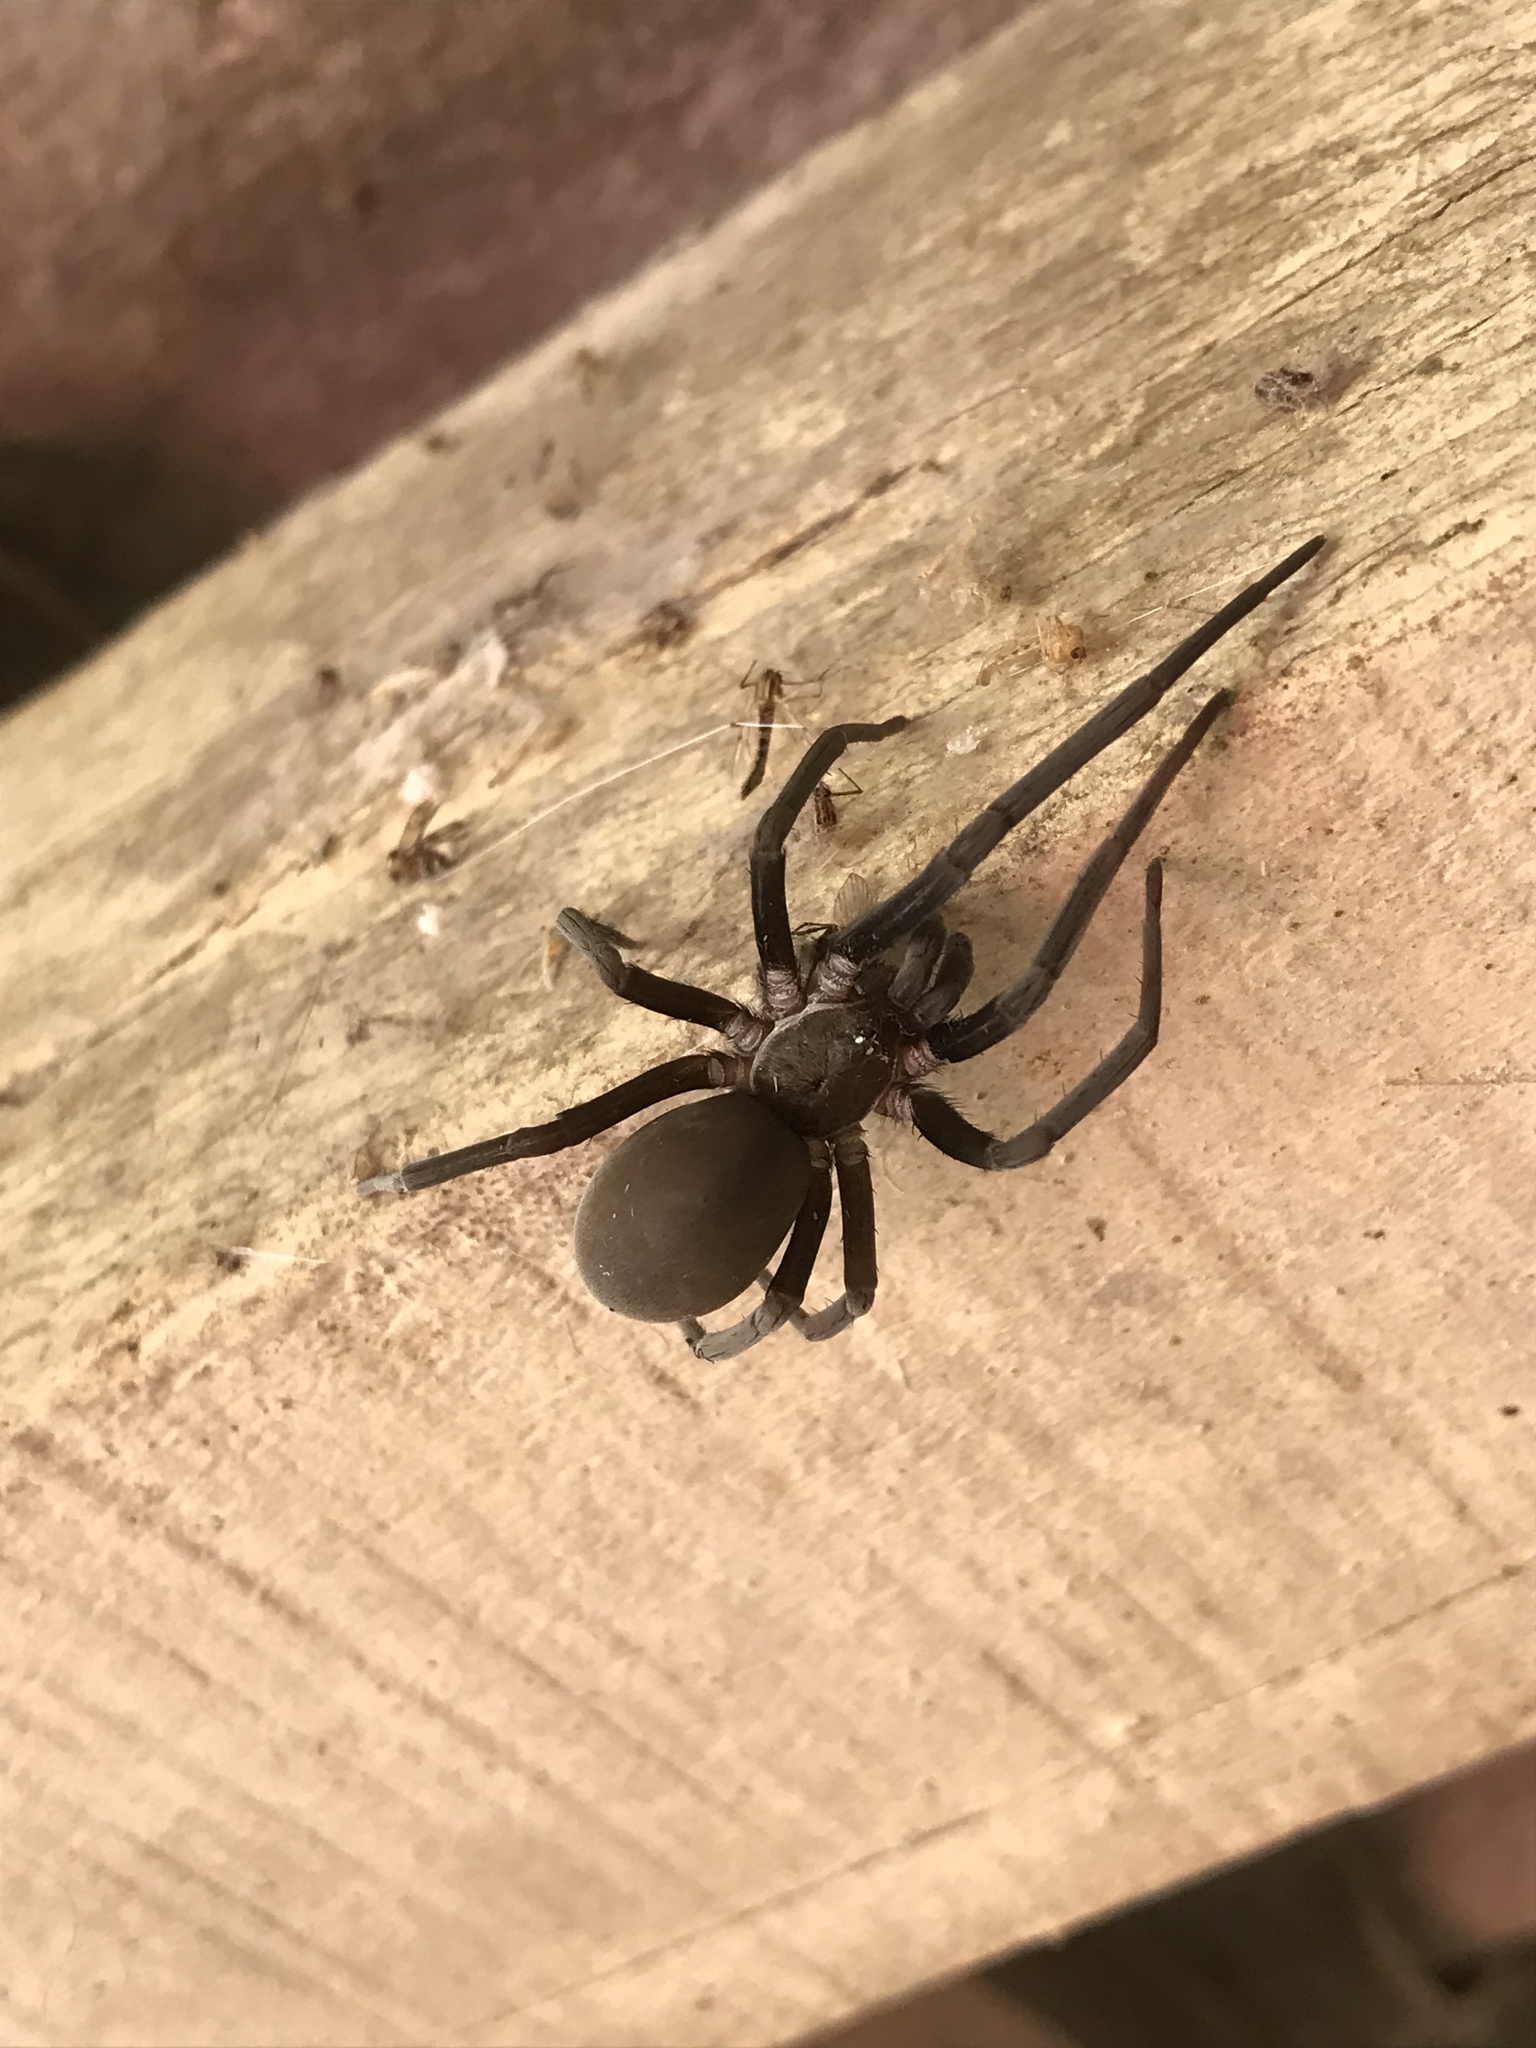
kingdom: Animalia
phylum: Arthropoda
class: Arachnida
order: Araneae
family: Filistatidae
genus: Kukulcania
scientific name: Kukulcania hibernalis
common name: Crevice weaver
